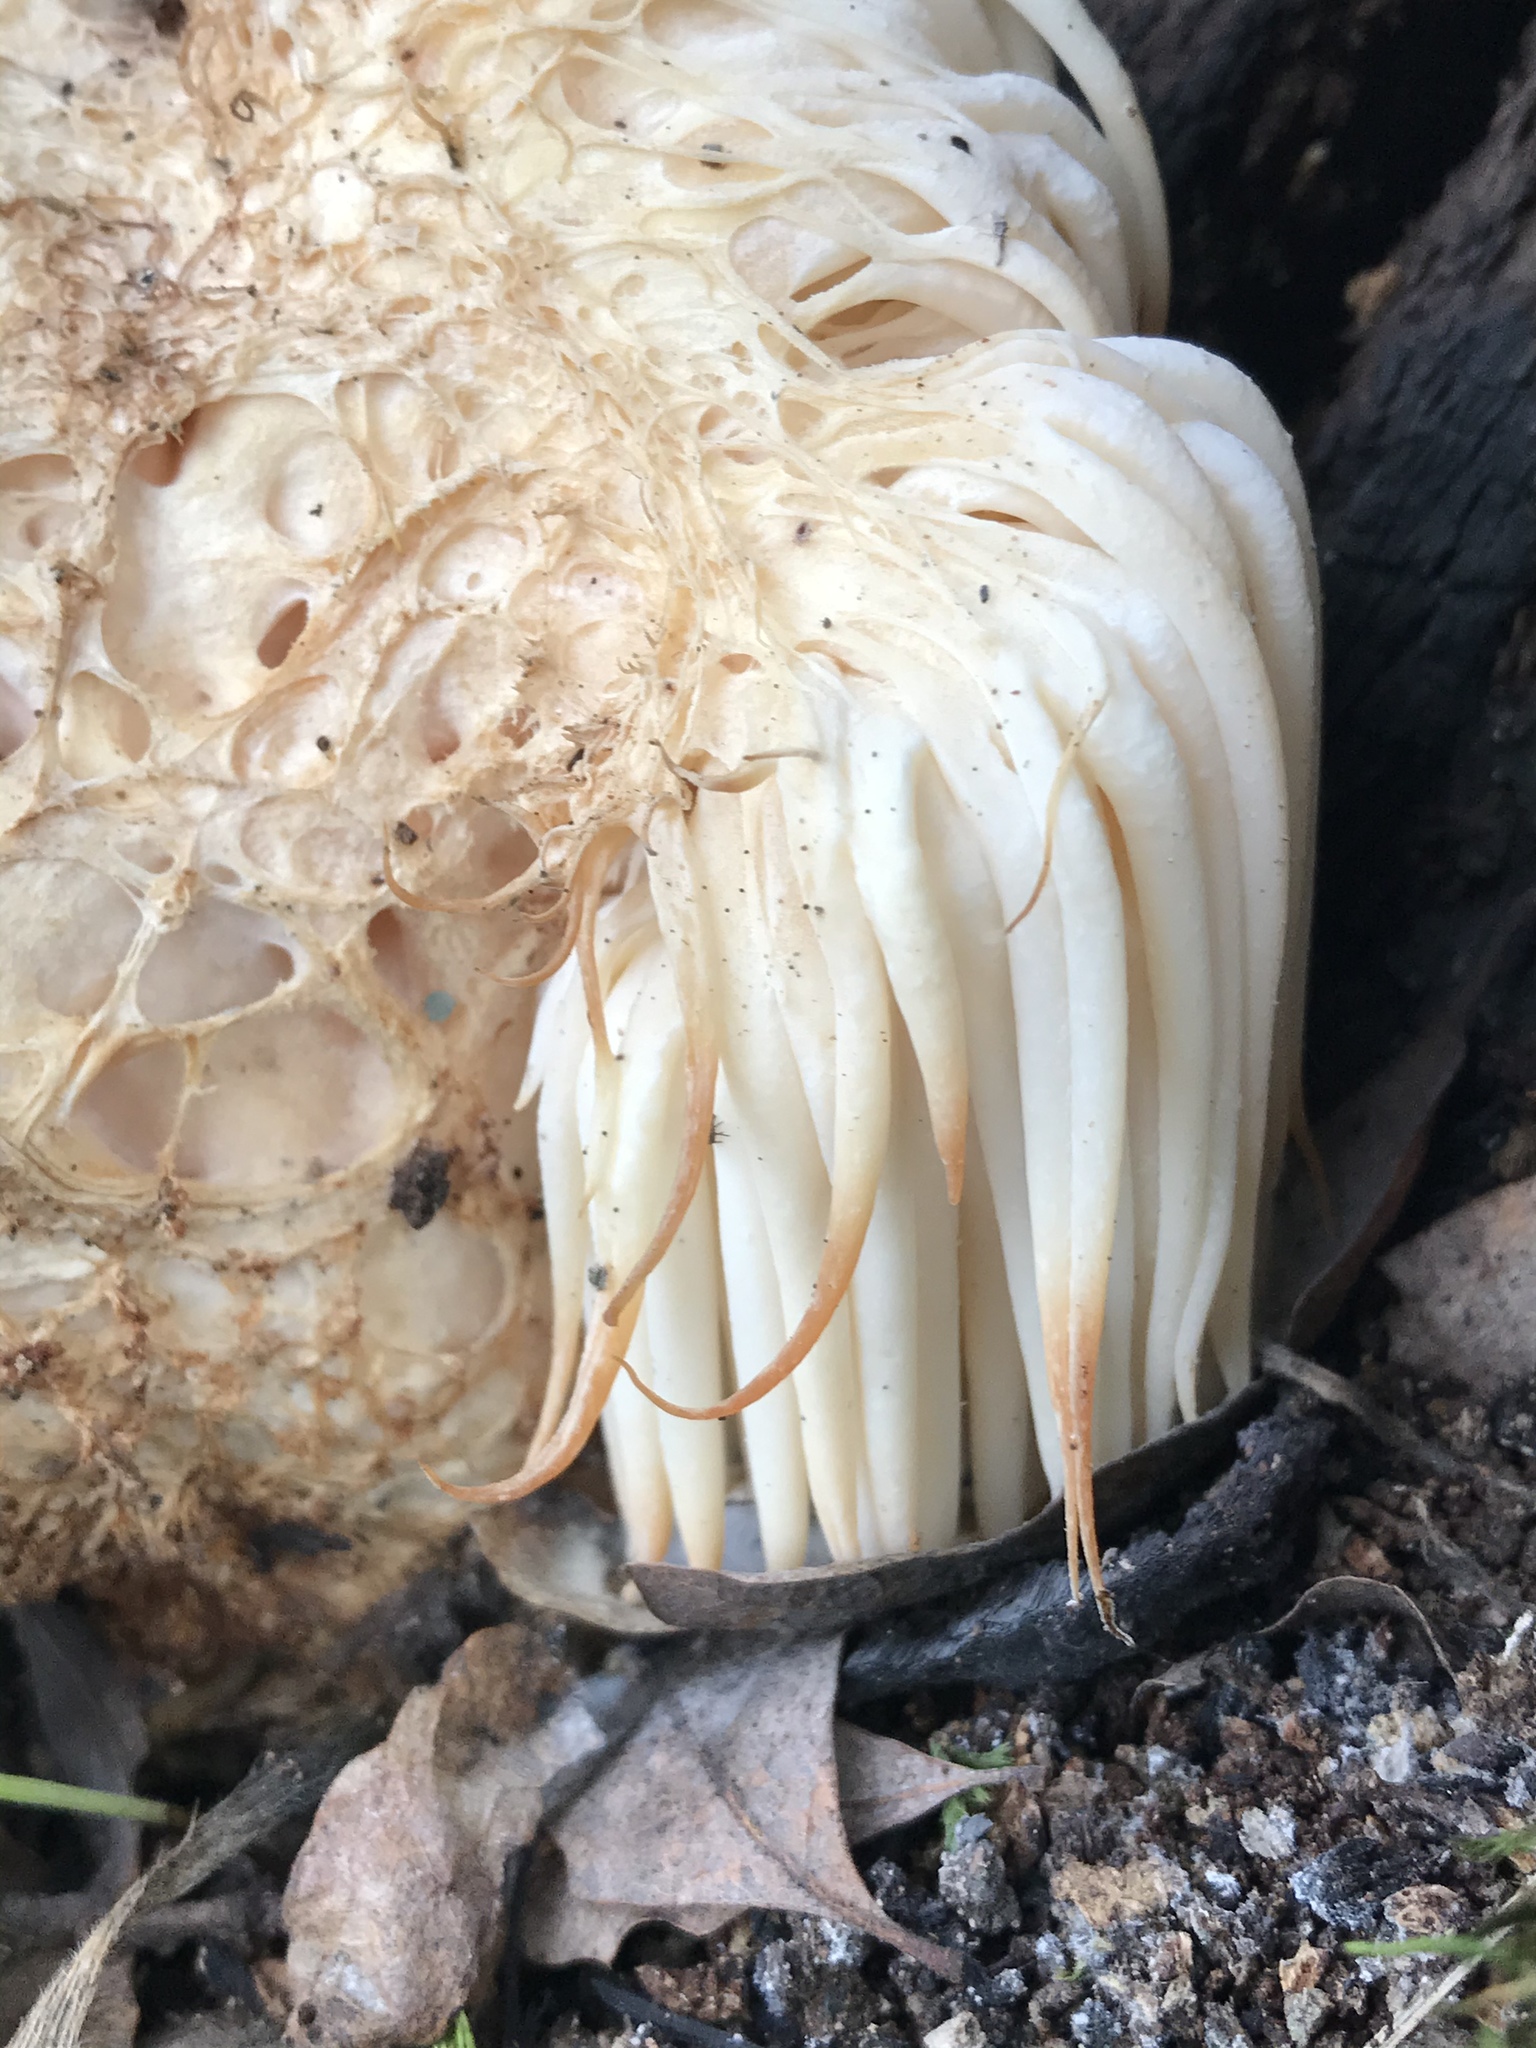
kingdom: Fungi
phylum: Basidiomycota
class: Agaricomycetes
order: Russulales
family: Hericiaceae
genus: Hericium
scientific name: Hericium erinaceus
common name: Bearded tooth
